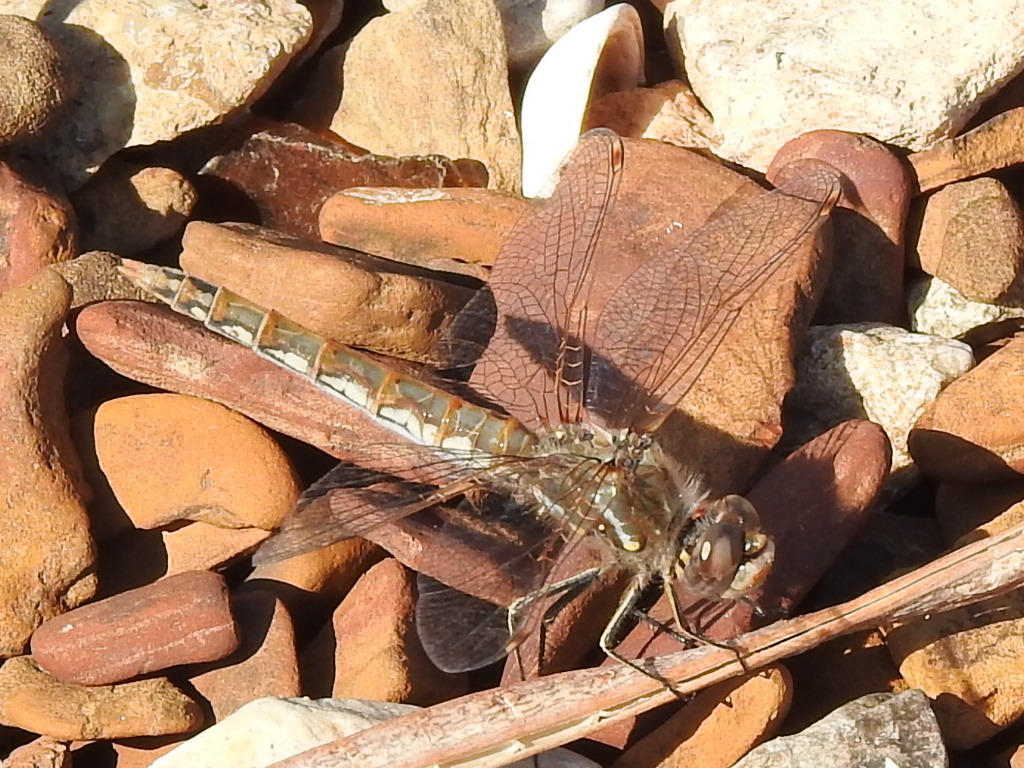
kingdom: Animalia
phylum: Arthropoda
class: Insecta
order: Odonata
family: Libellulidae
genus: Sympetrum
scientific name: Sympetrum corruptum
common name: Variegated meadowhawk
